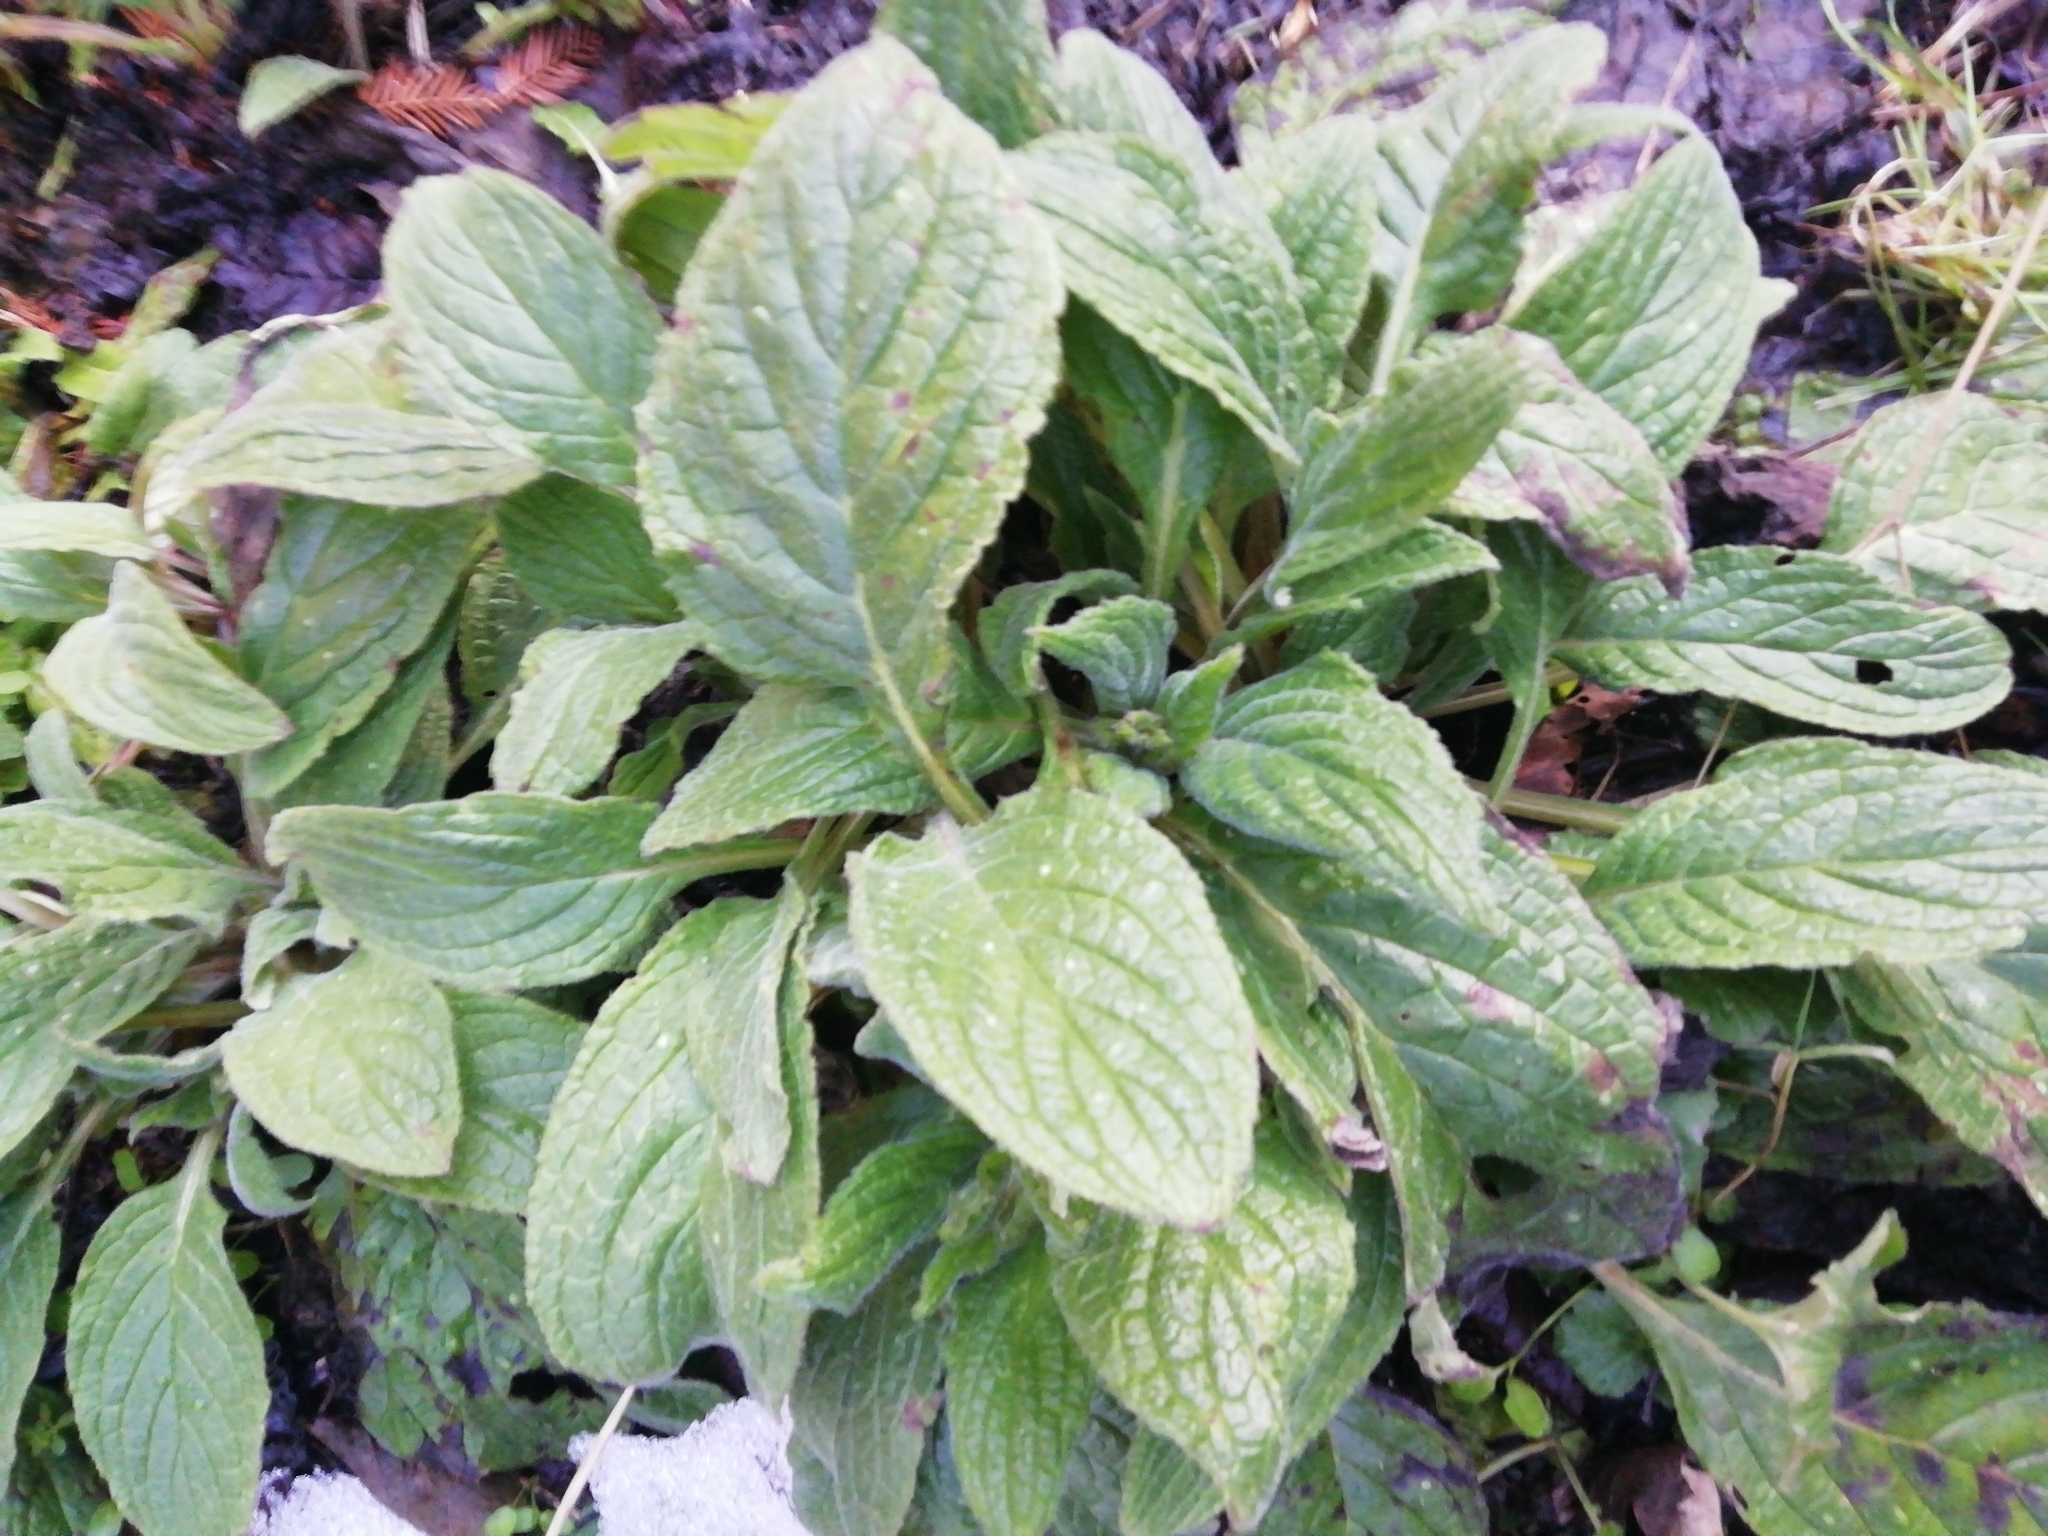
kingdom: Plantae
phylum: Tracheophyta
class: Magnoliopsida
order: Boraginales
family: Boraginaceae
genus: Pentaglottis
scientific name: Pentaglottis sempervirens
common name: Green alkanet
